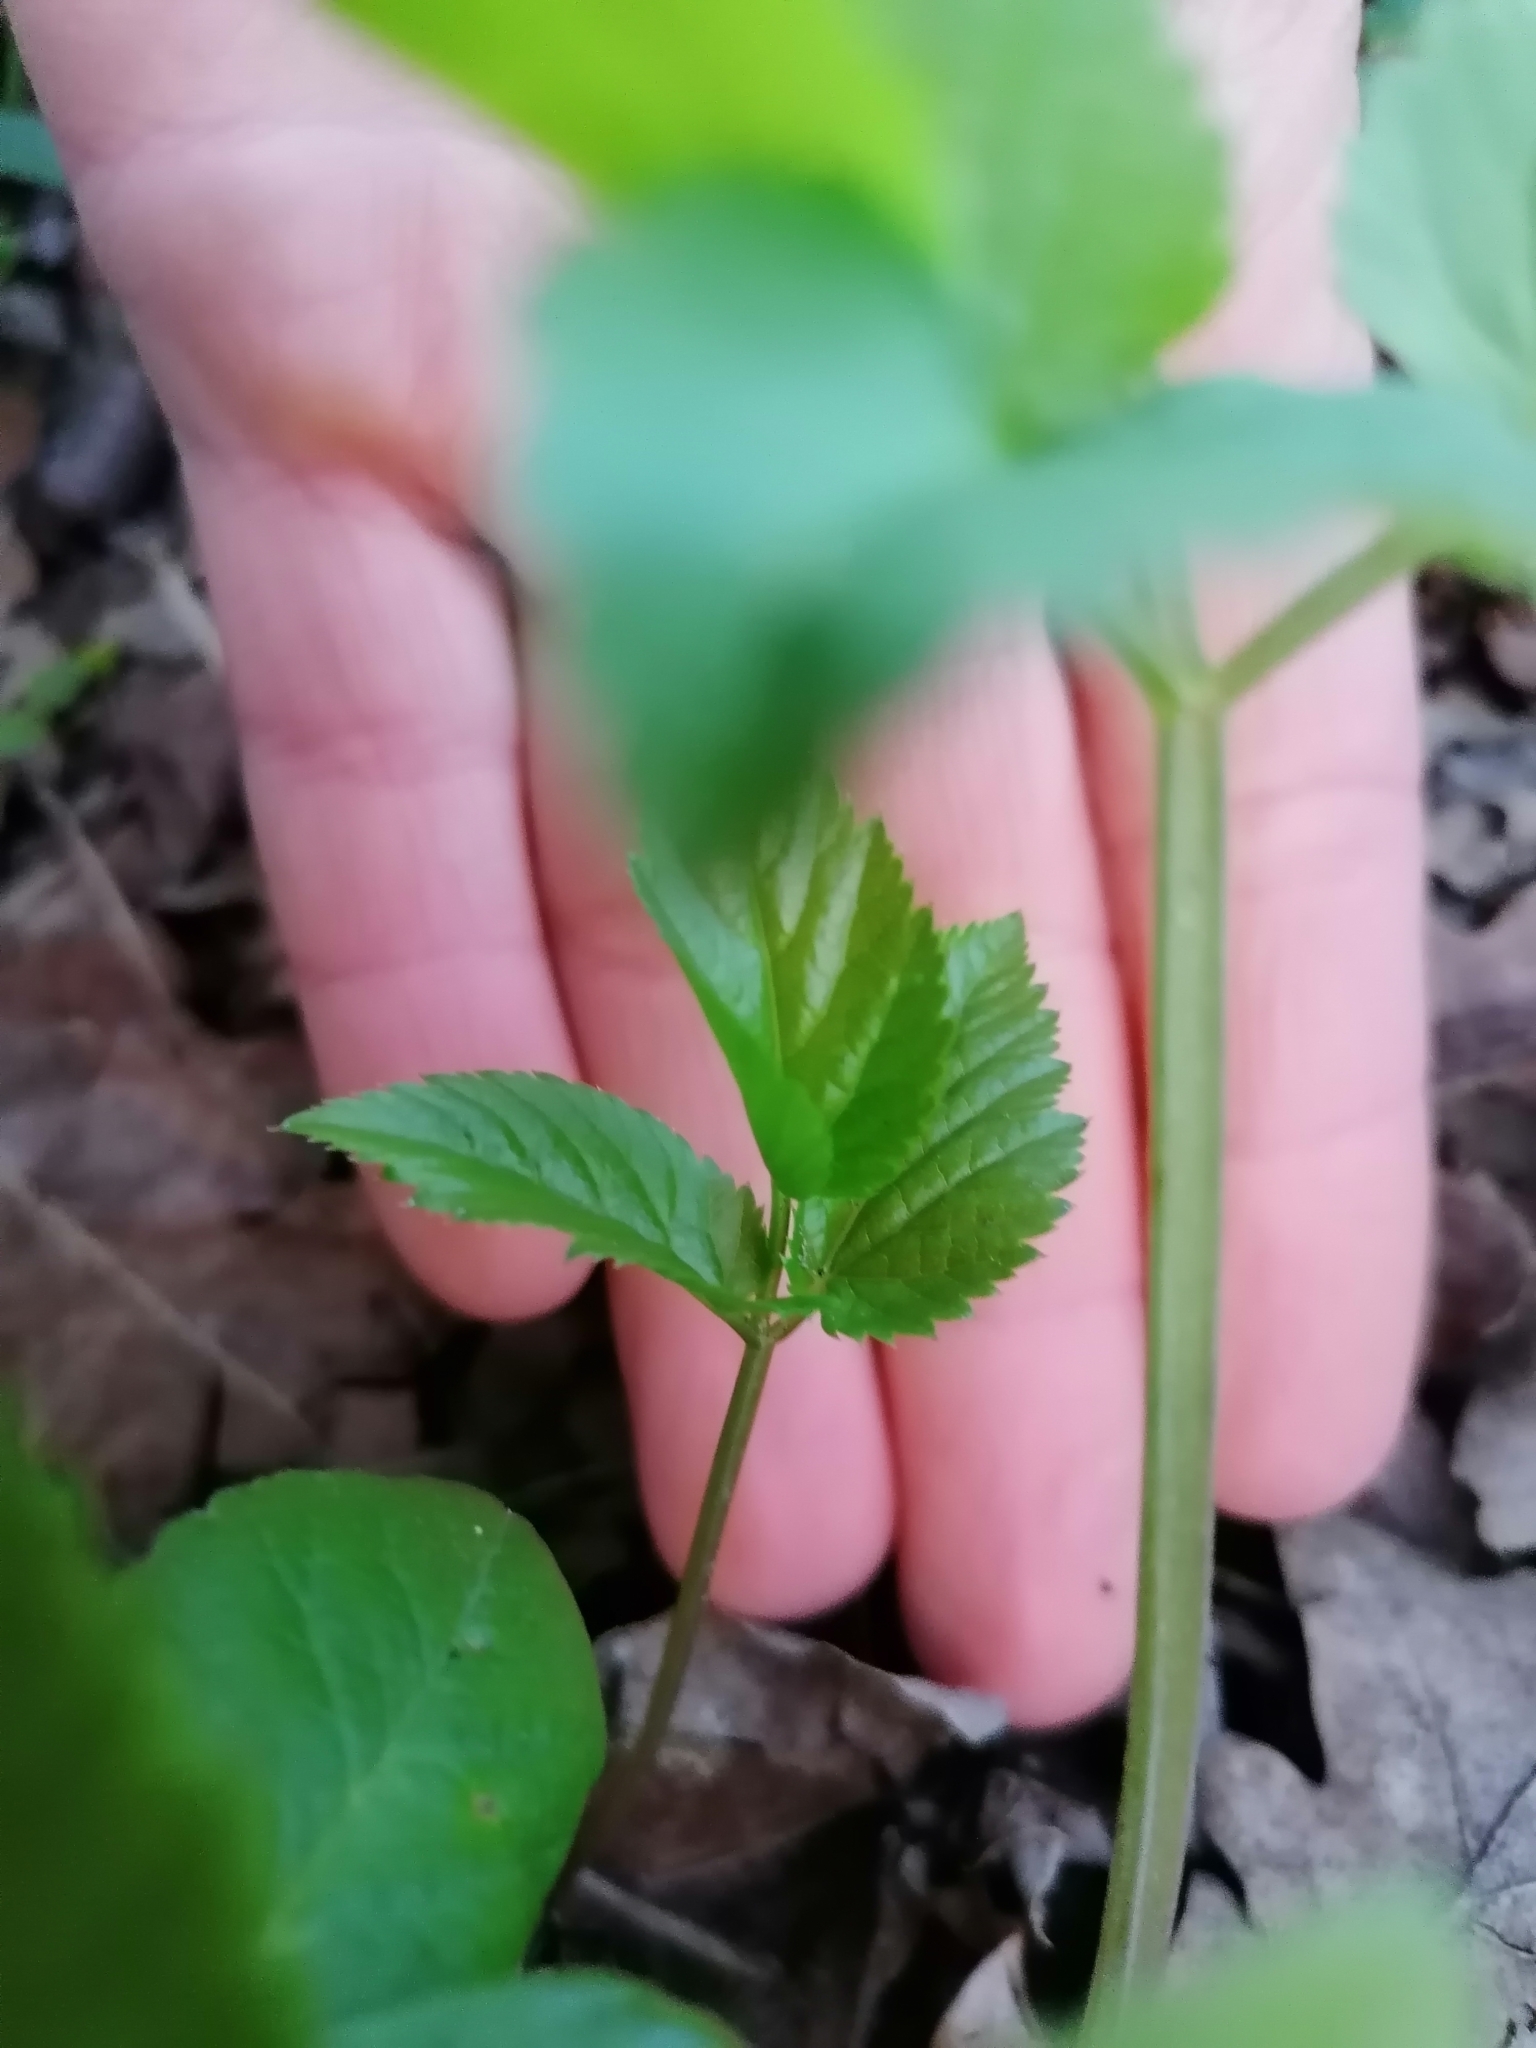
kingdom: Plantae
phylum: Tracheophyta
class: Magnoliopsida
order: Apiales
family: Apiaceae
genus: Aegopodium
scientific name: Aegopodium podagraria
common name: Ground-elder
